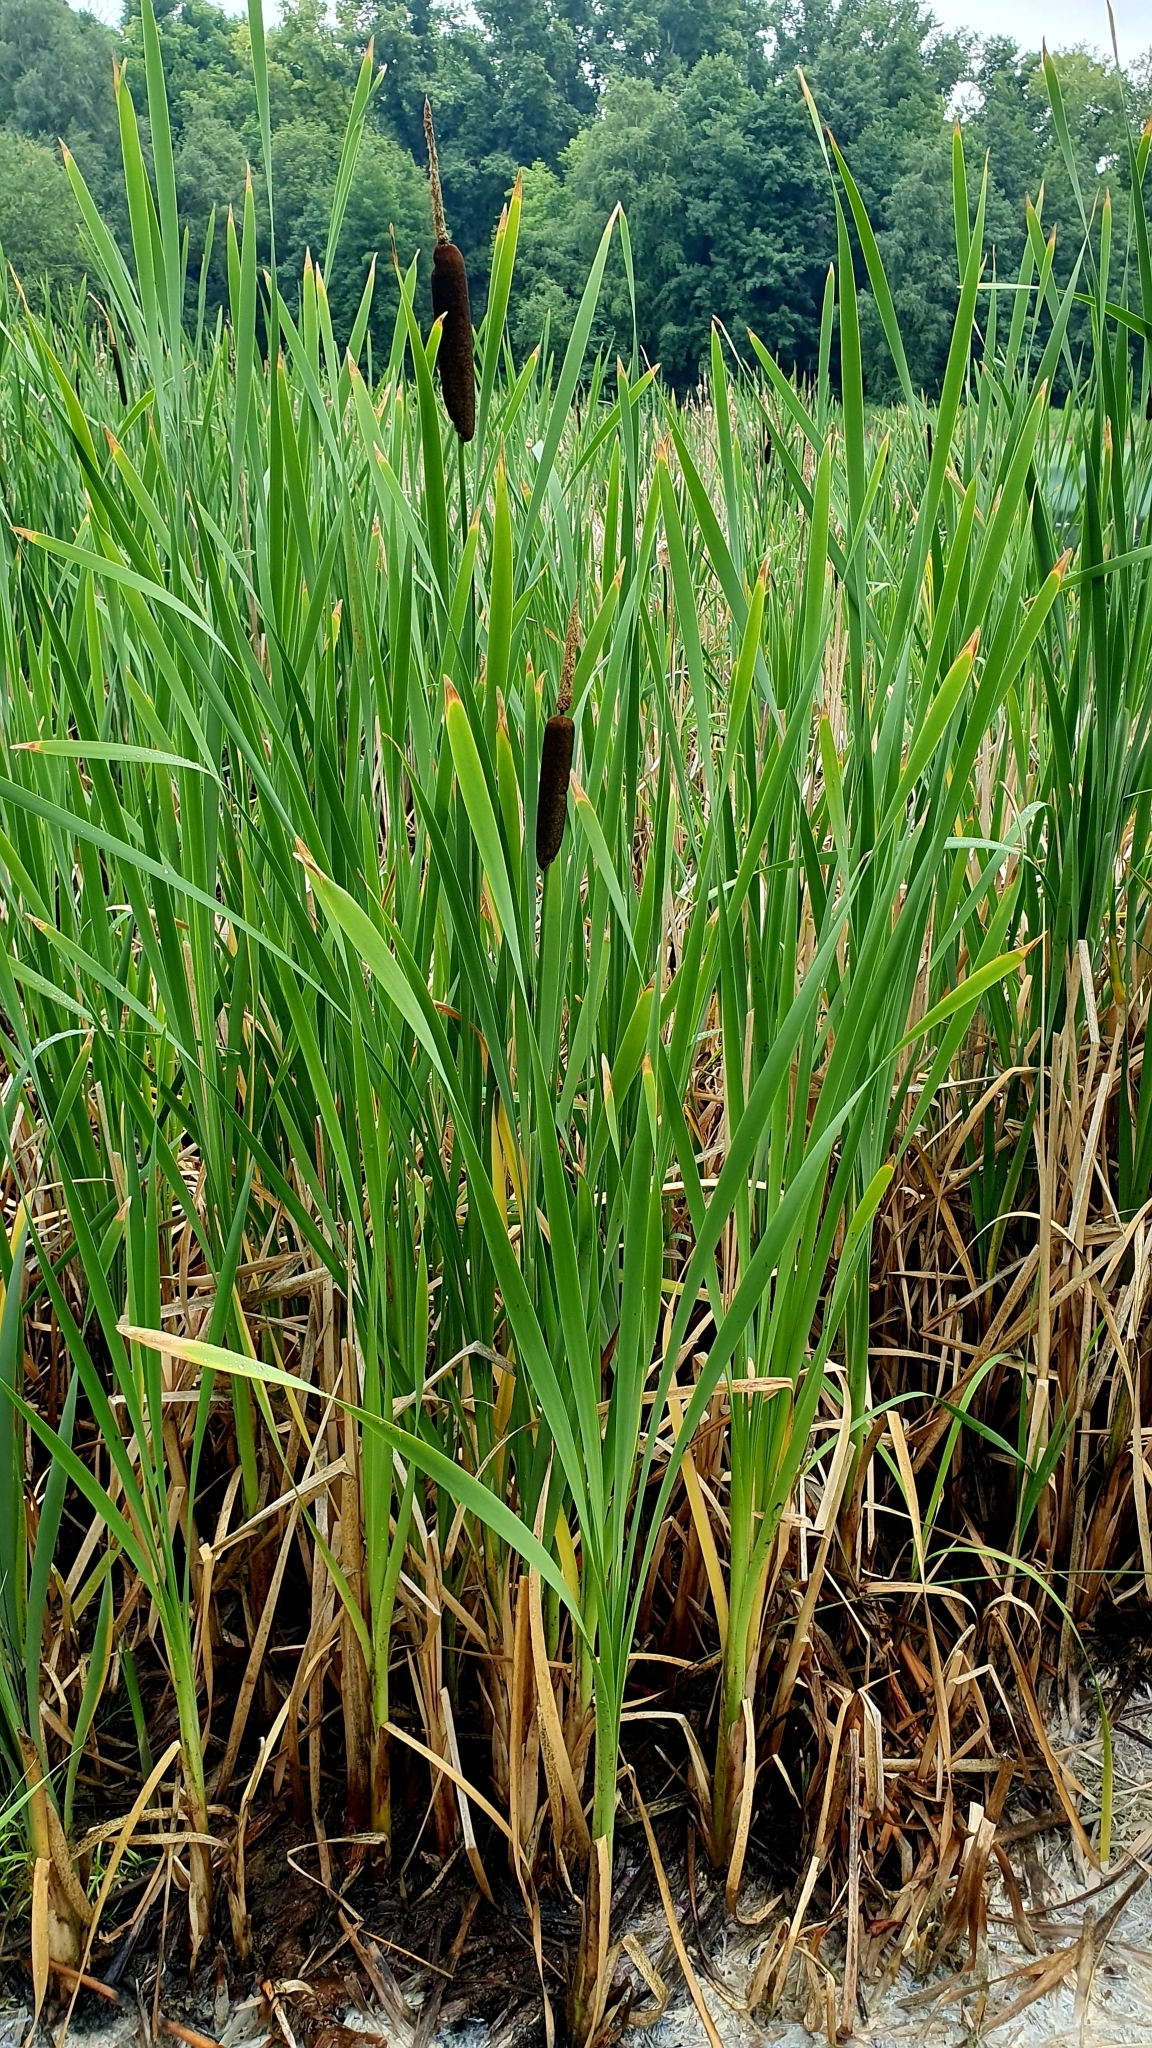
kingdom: Plantae
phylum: Tracheophyta
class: Liliopsida
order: Poales
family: Typhaceae
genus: Typha
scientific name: Typha latifolia
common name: Broadleaf cattail
